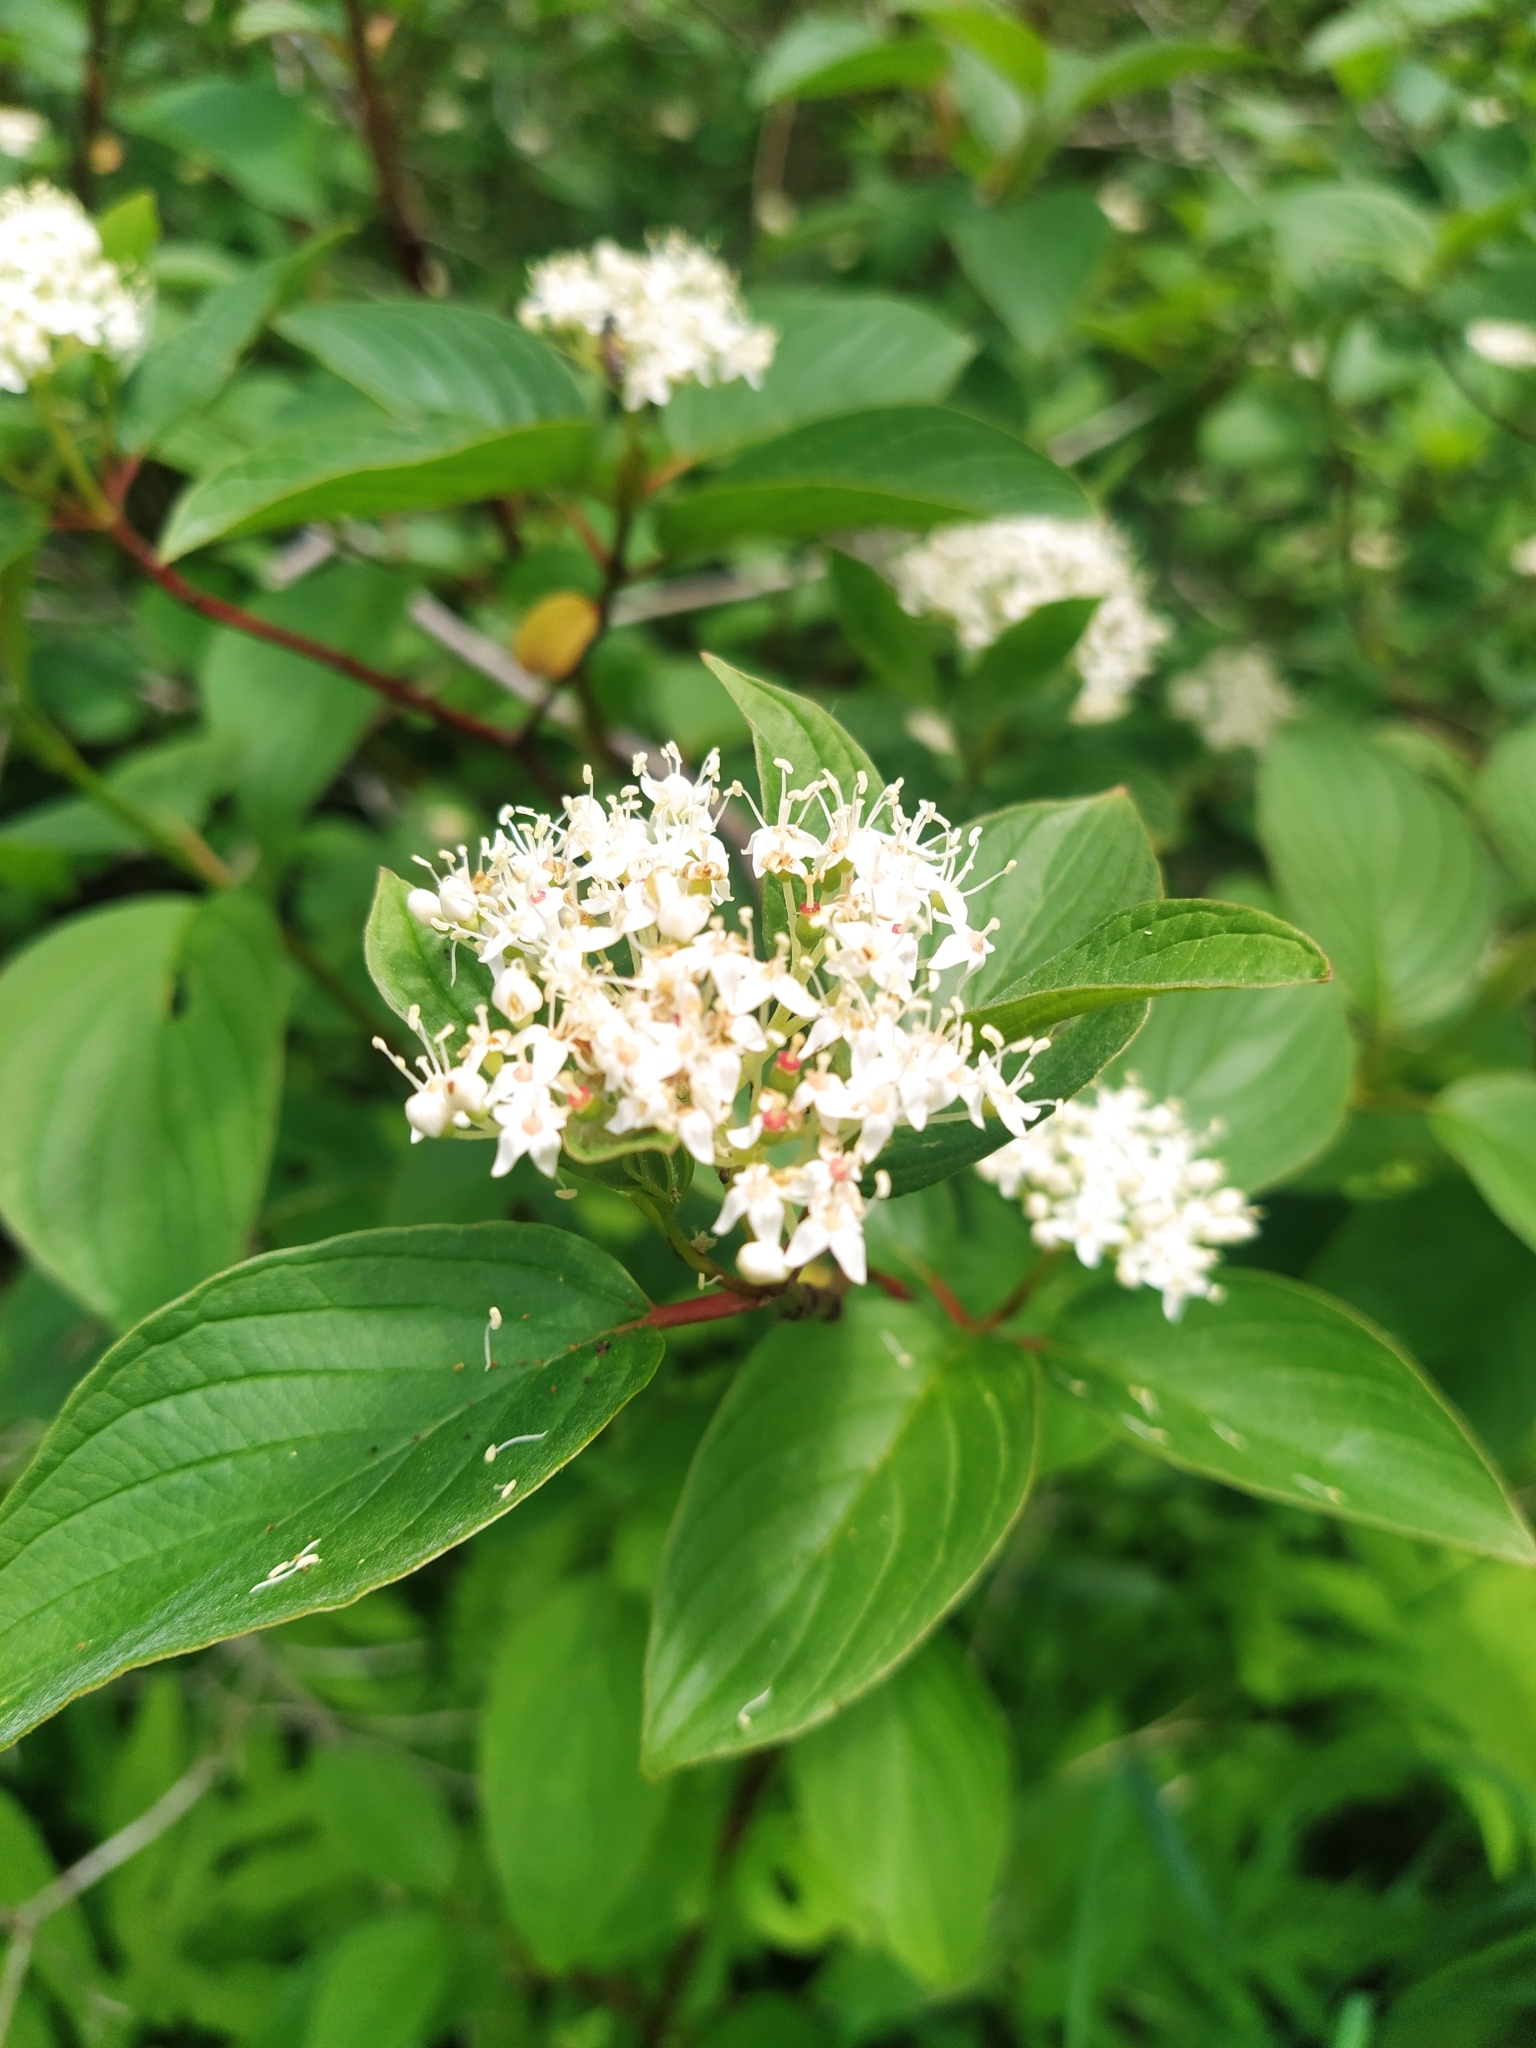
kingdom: Plantae
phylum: Tracheophyta
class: Magnoliopsida
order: Cornales
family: Cornaceae
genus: Cornus
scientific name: Cornus sericea
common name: Red-osier dogwood
